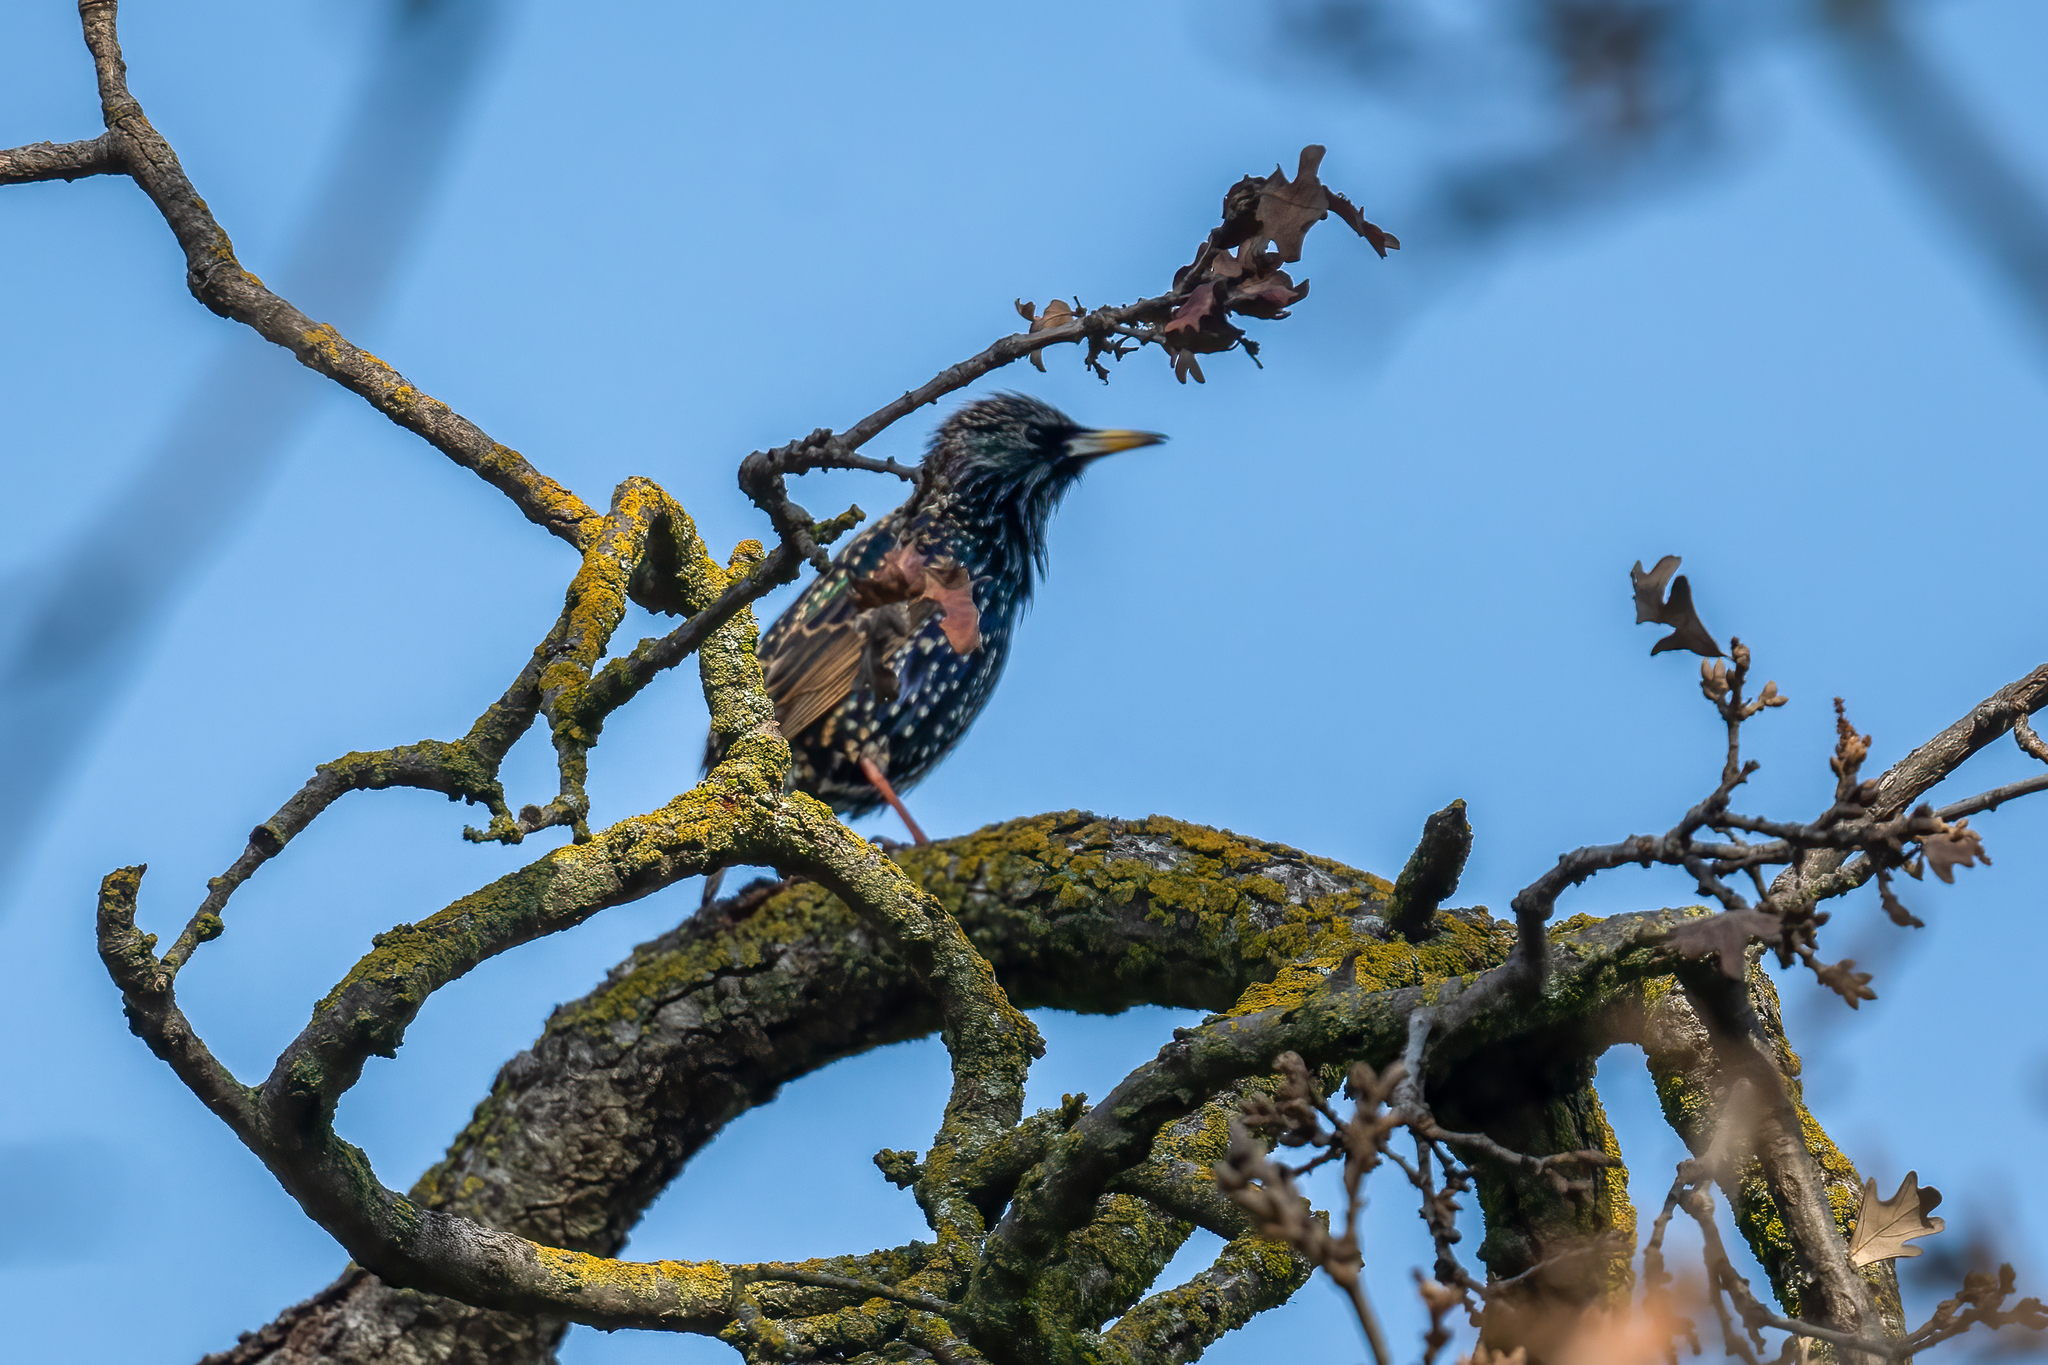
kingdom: Animalia
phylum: Chordata
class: Aves
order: Passeriformes
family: Sturnidae
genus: Sturnus
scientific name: Sturnus vulgaris
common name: Common starling
